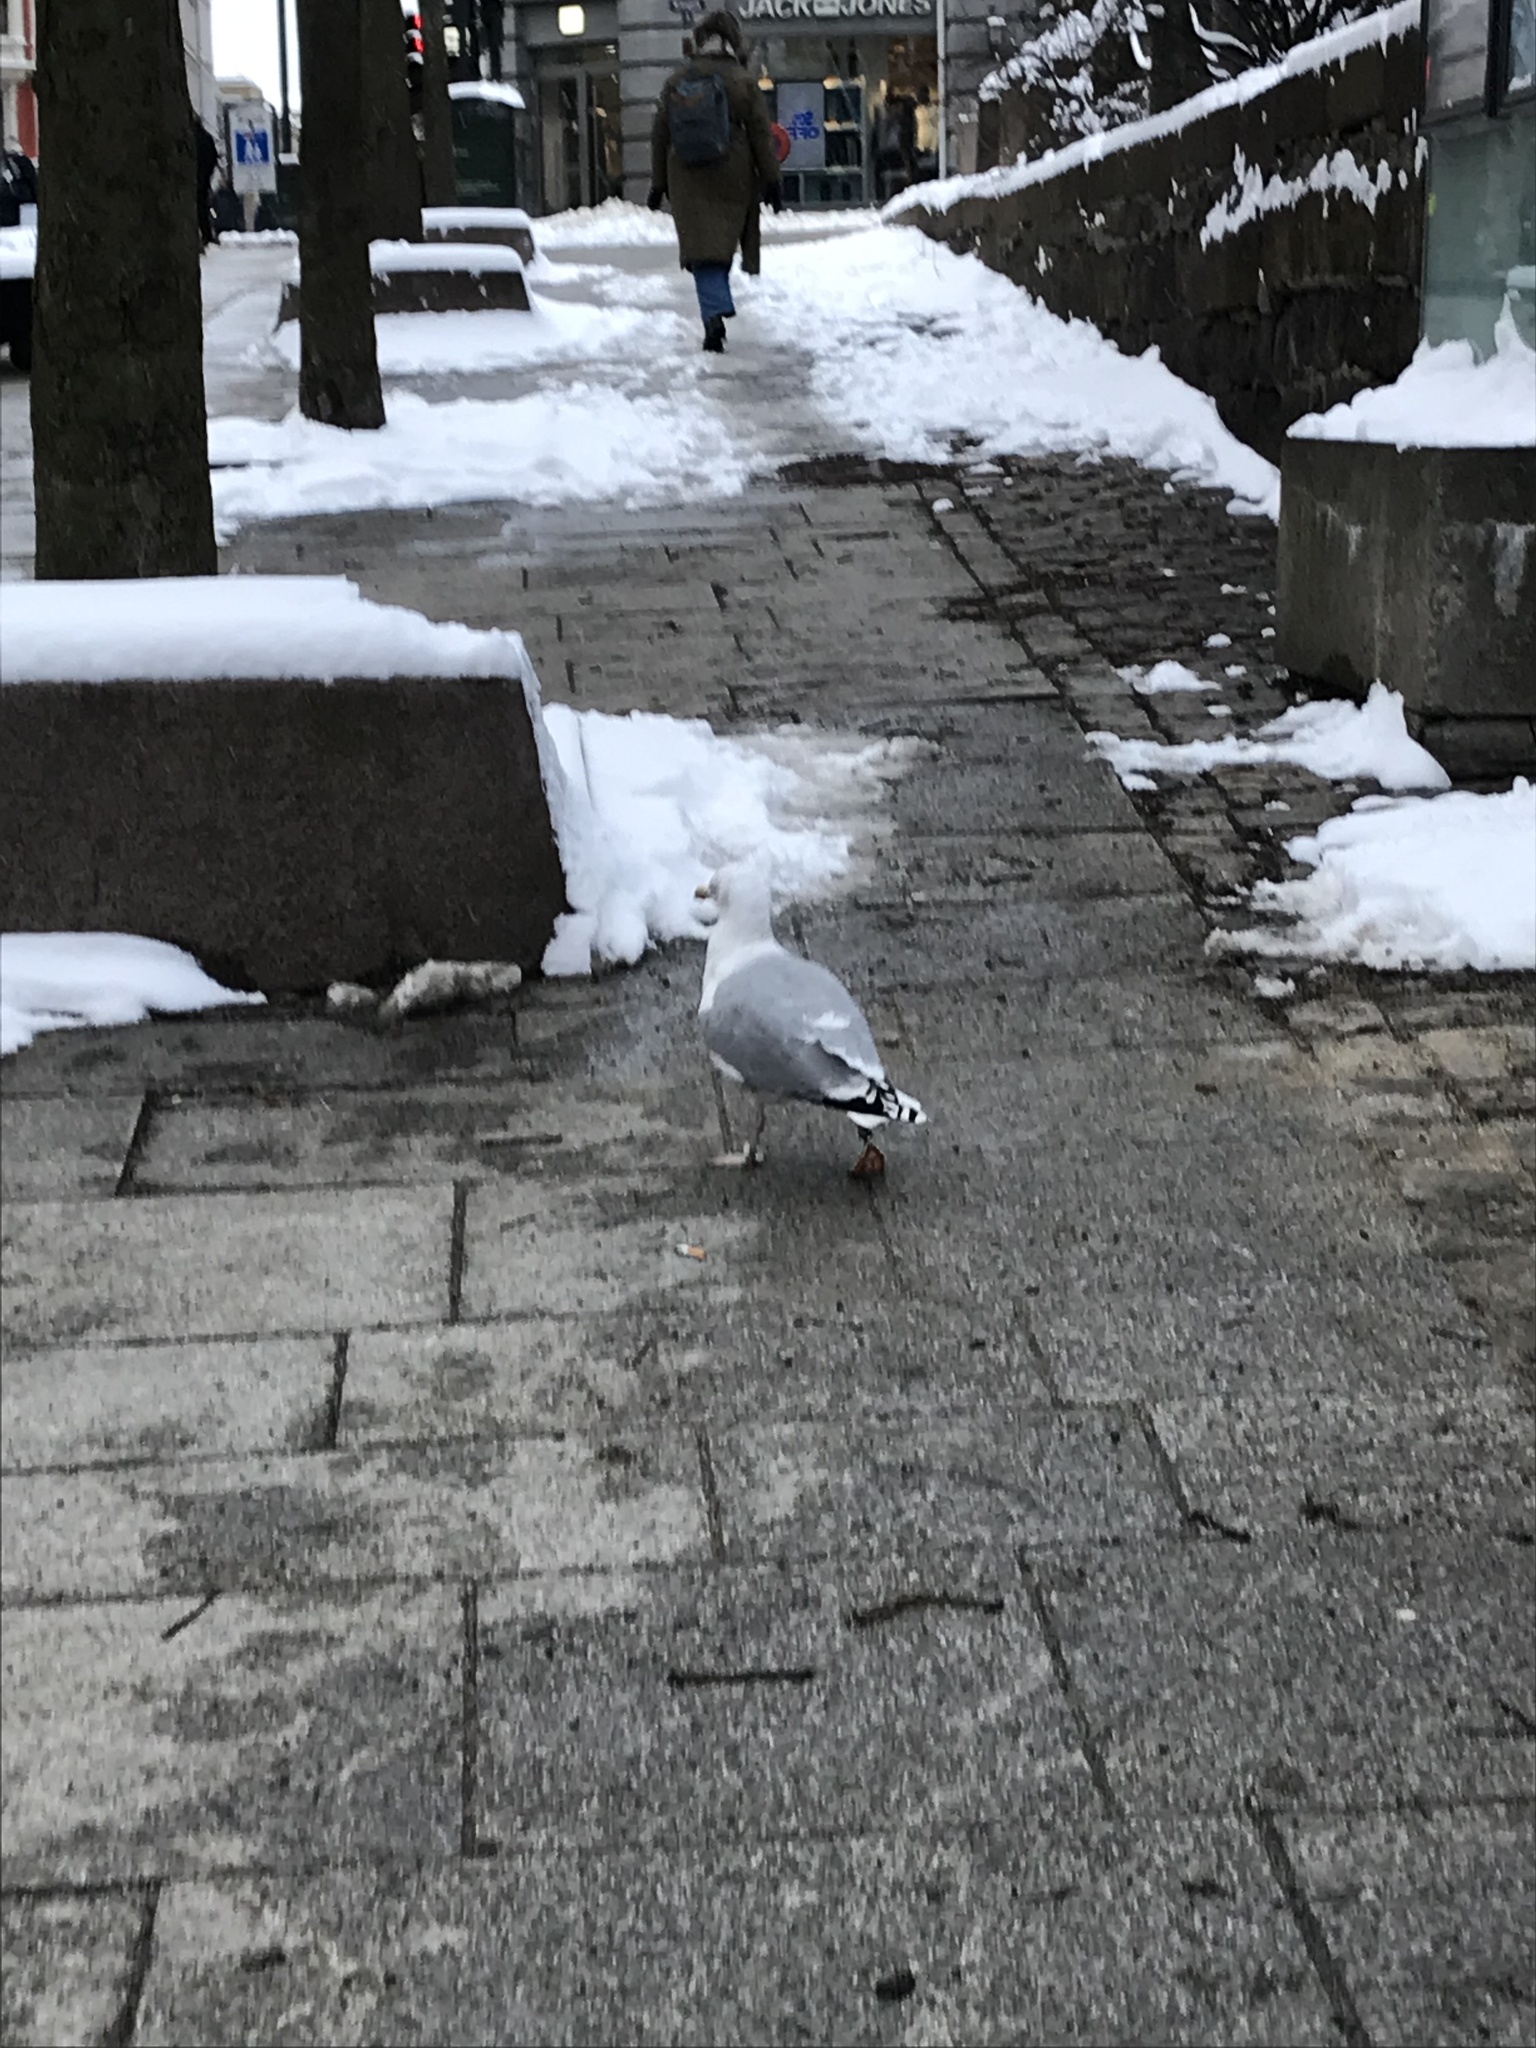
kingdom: Animalia
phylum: Chordata
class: Aves
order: Charadriiformes
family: Laridae
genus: Larus
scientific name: Larus argentatus
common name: Herring gull
